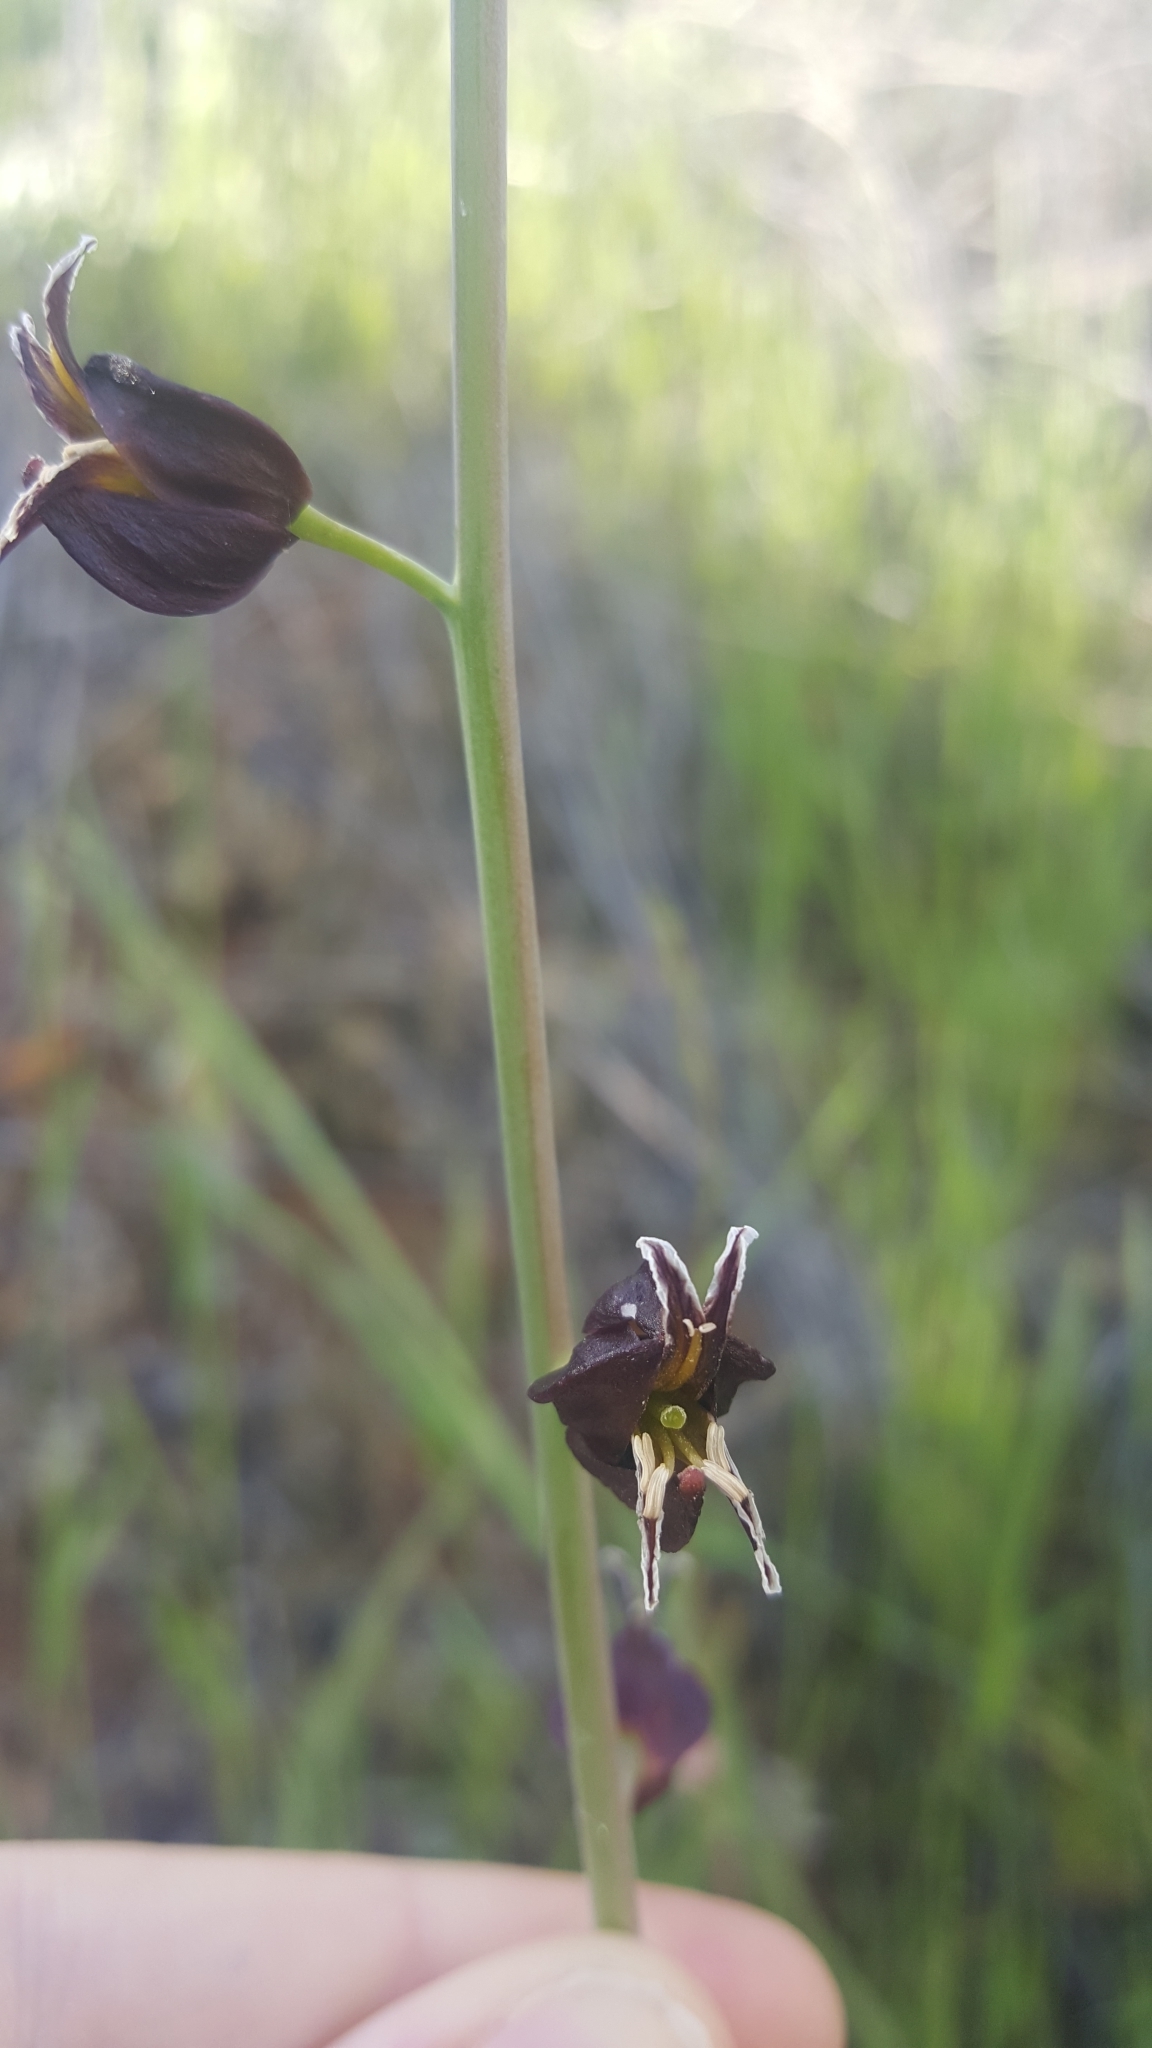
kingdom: Plantae
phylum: Tracheophyta
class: Magnoliopsida
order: Brassicales
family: Brassicaceae
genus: Streptanthus
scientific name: Streptanthus glandulosus
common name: Jewel-flower
